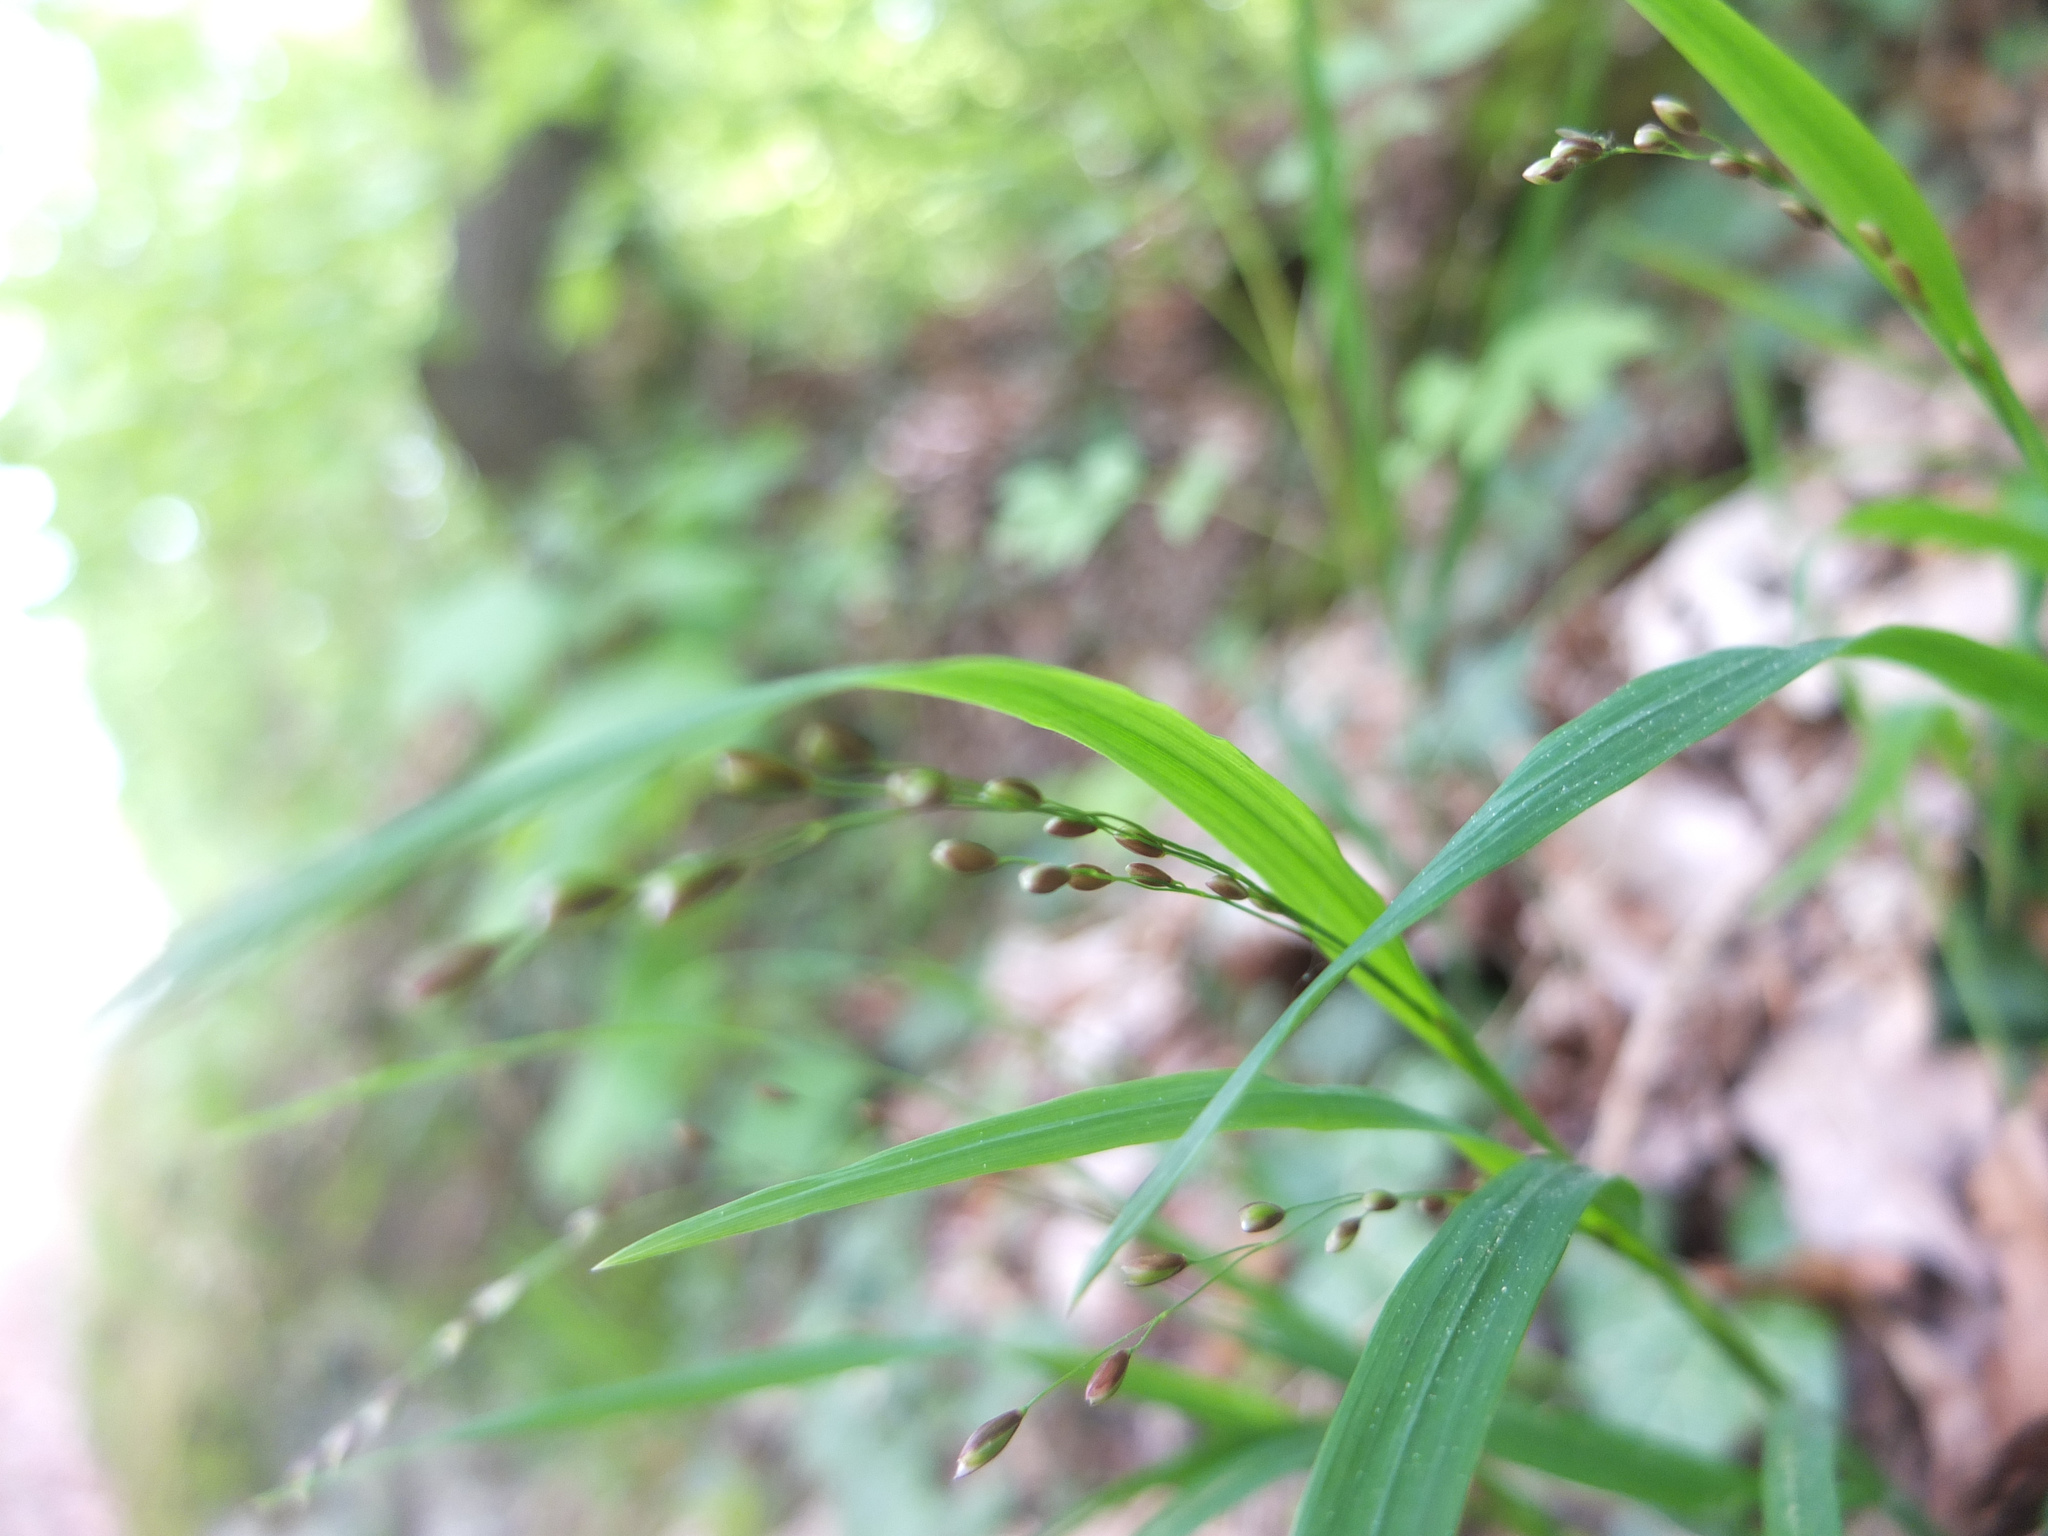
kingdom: Plantae
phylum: Tracheophyta
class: Liliopsida
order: Poales
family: Poaceae
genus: Melica
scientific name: Melica uniflora
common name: Wood melick
